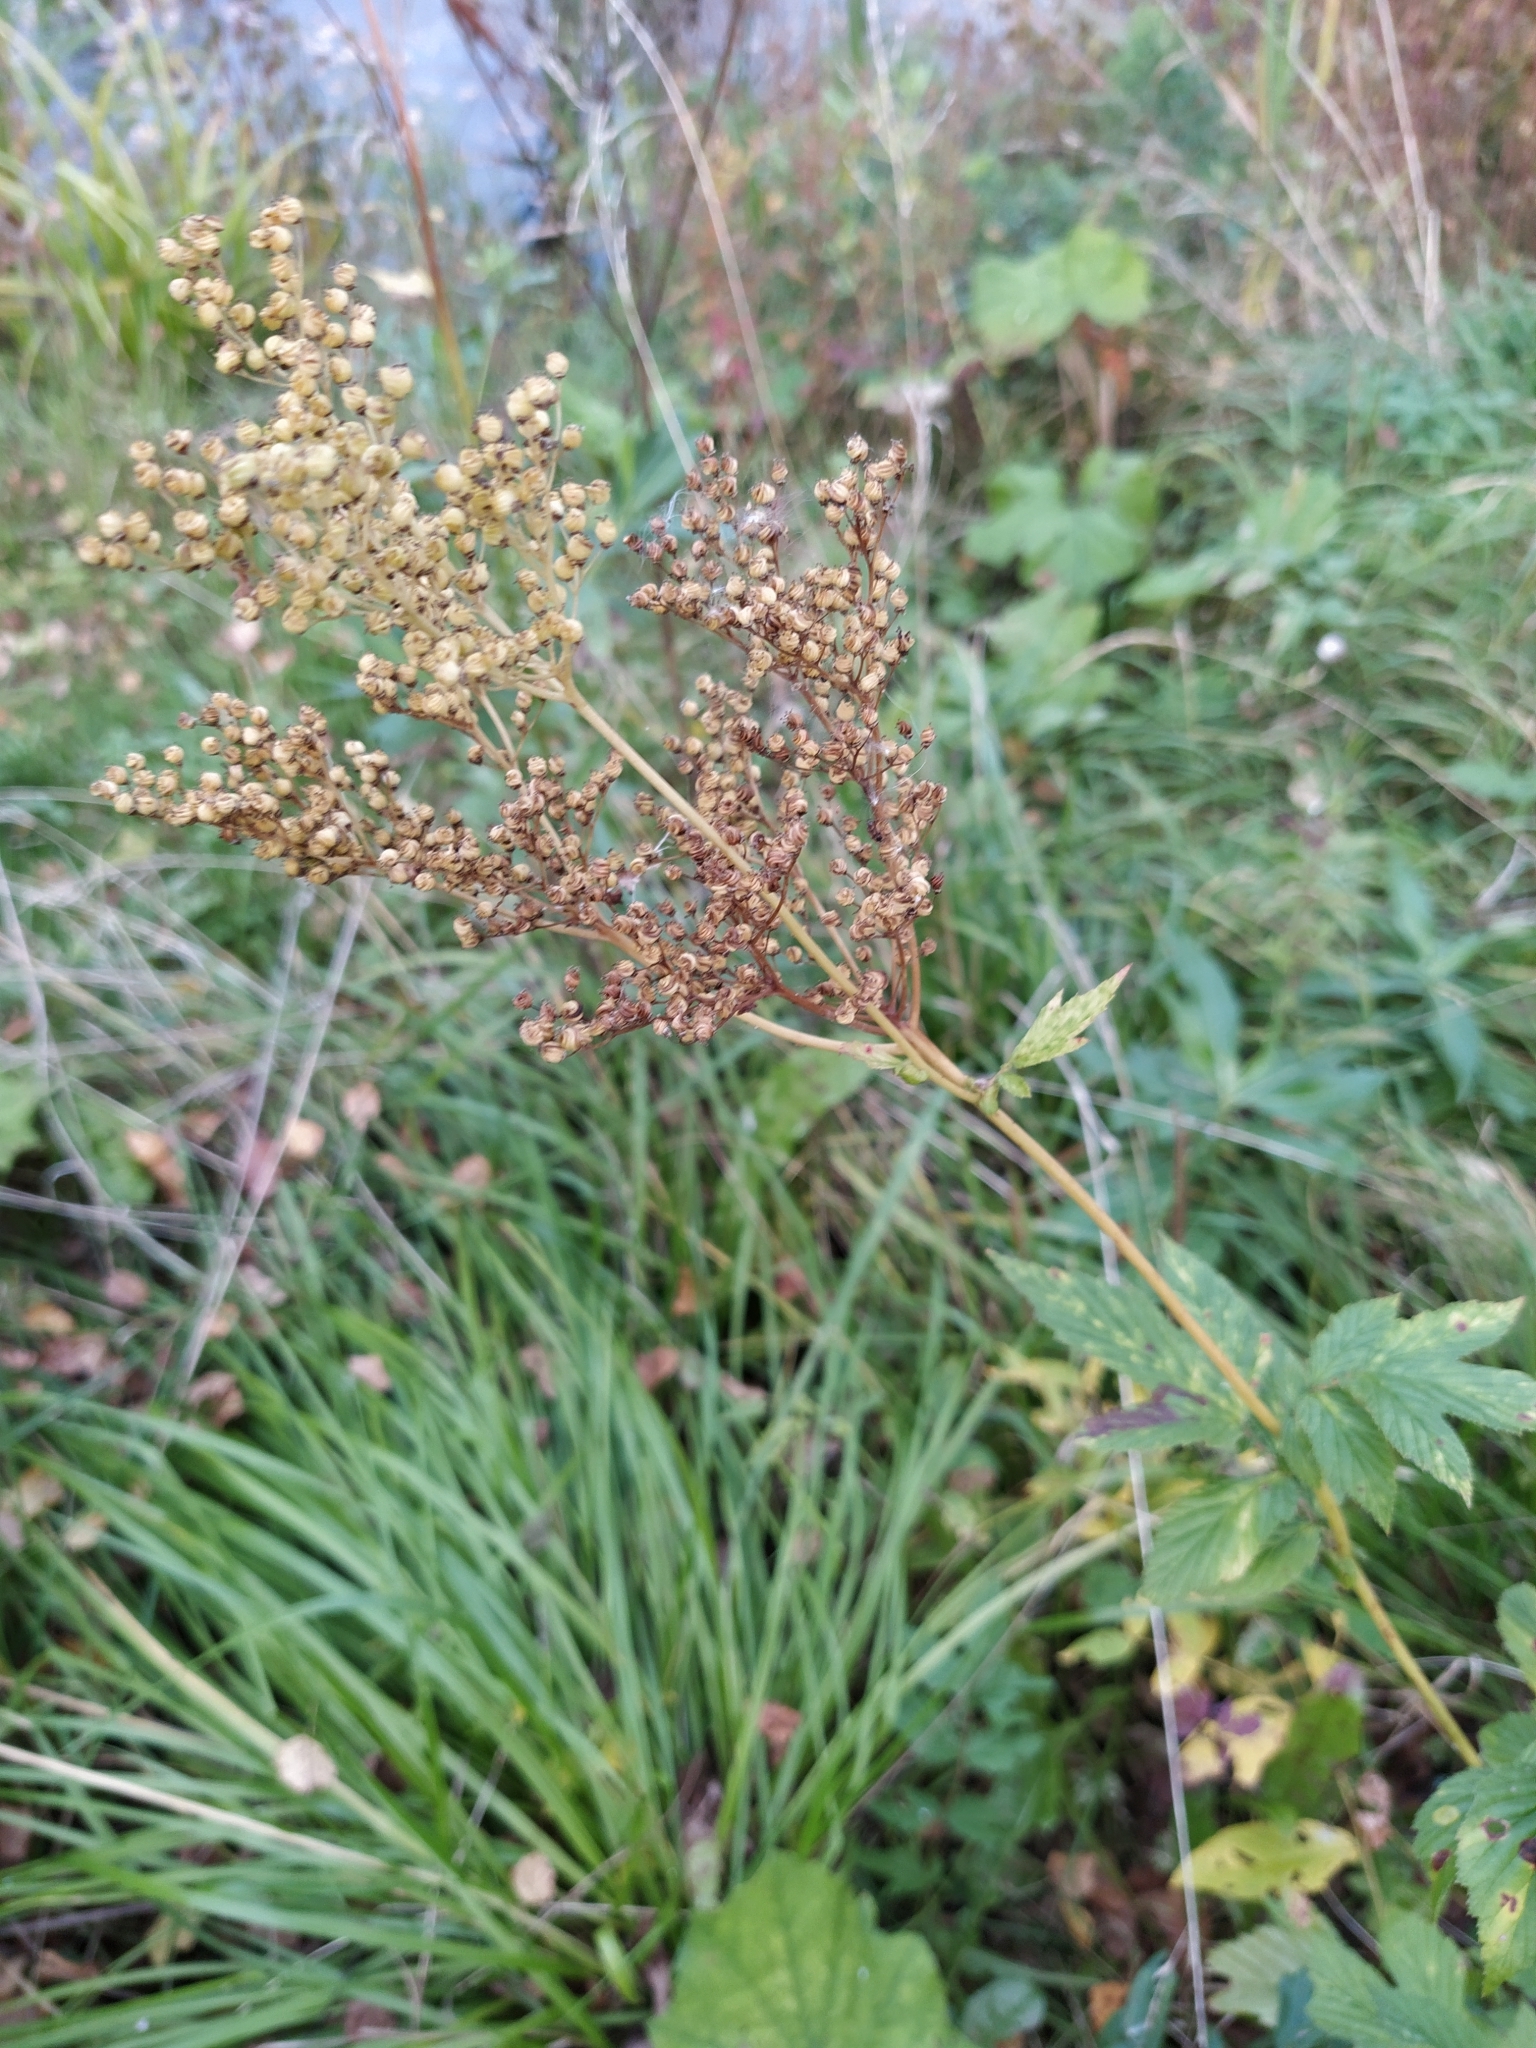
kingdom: Plantae
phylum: Tracheophyta
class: Magnoliopsida
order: Rosales
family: Rosaceae
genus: Filipendula
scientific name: Filipendula ulmaria
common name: Meadowsweet
